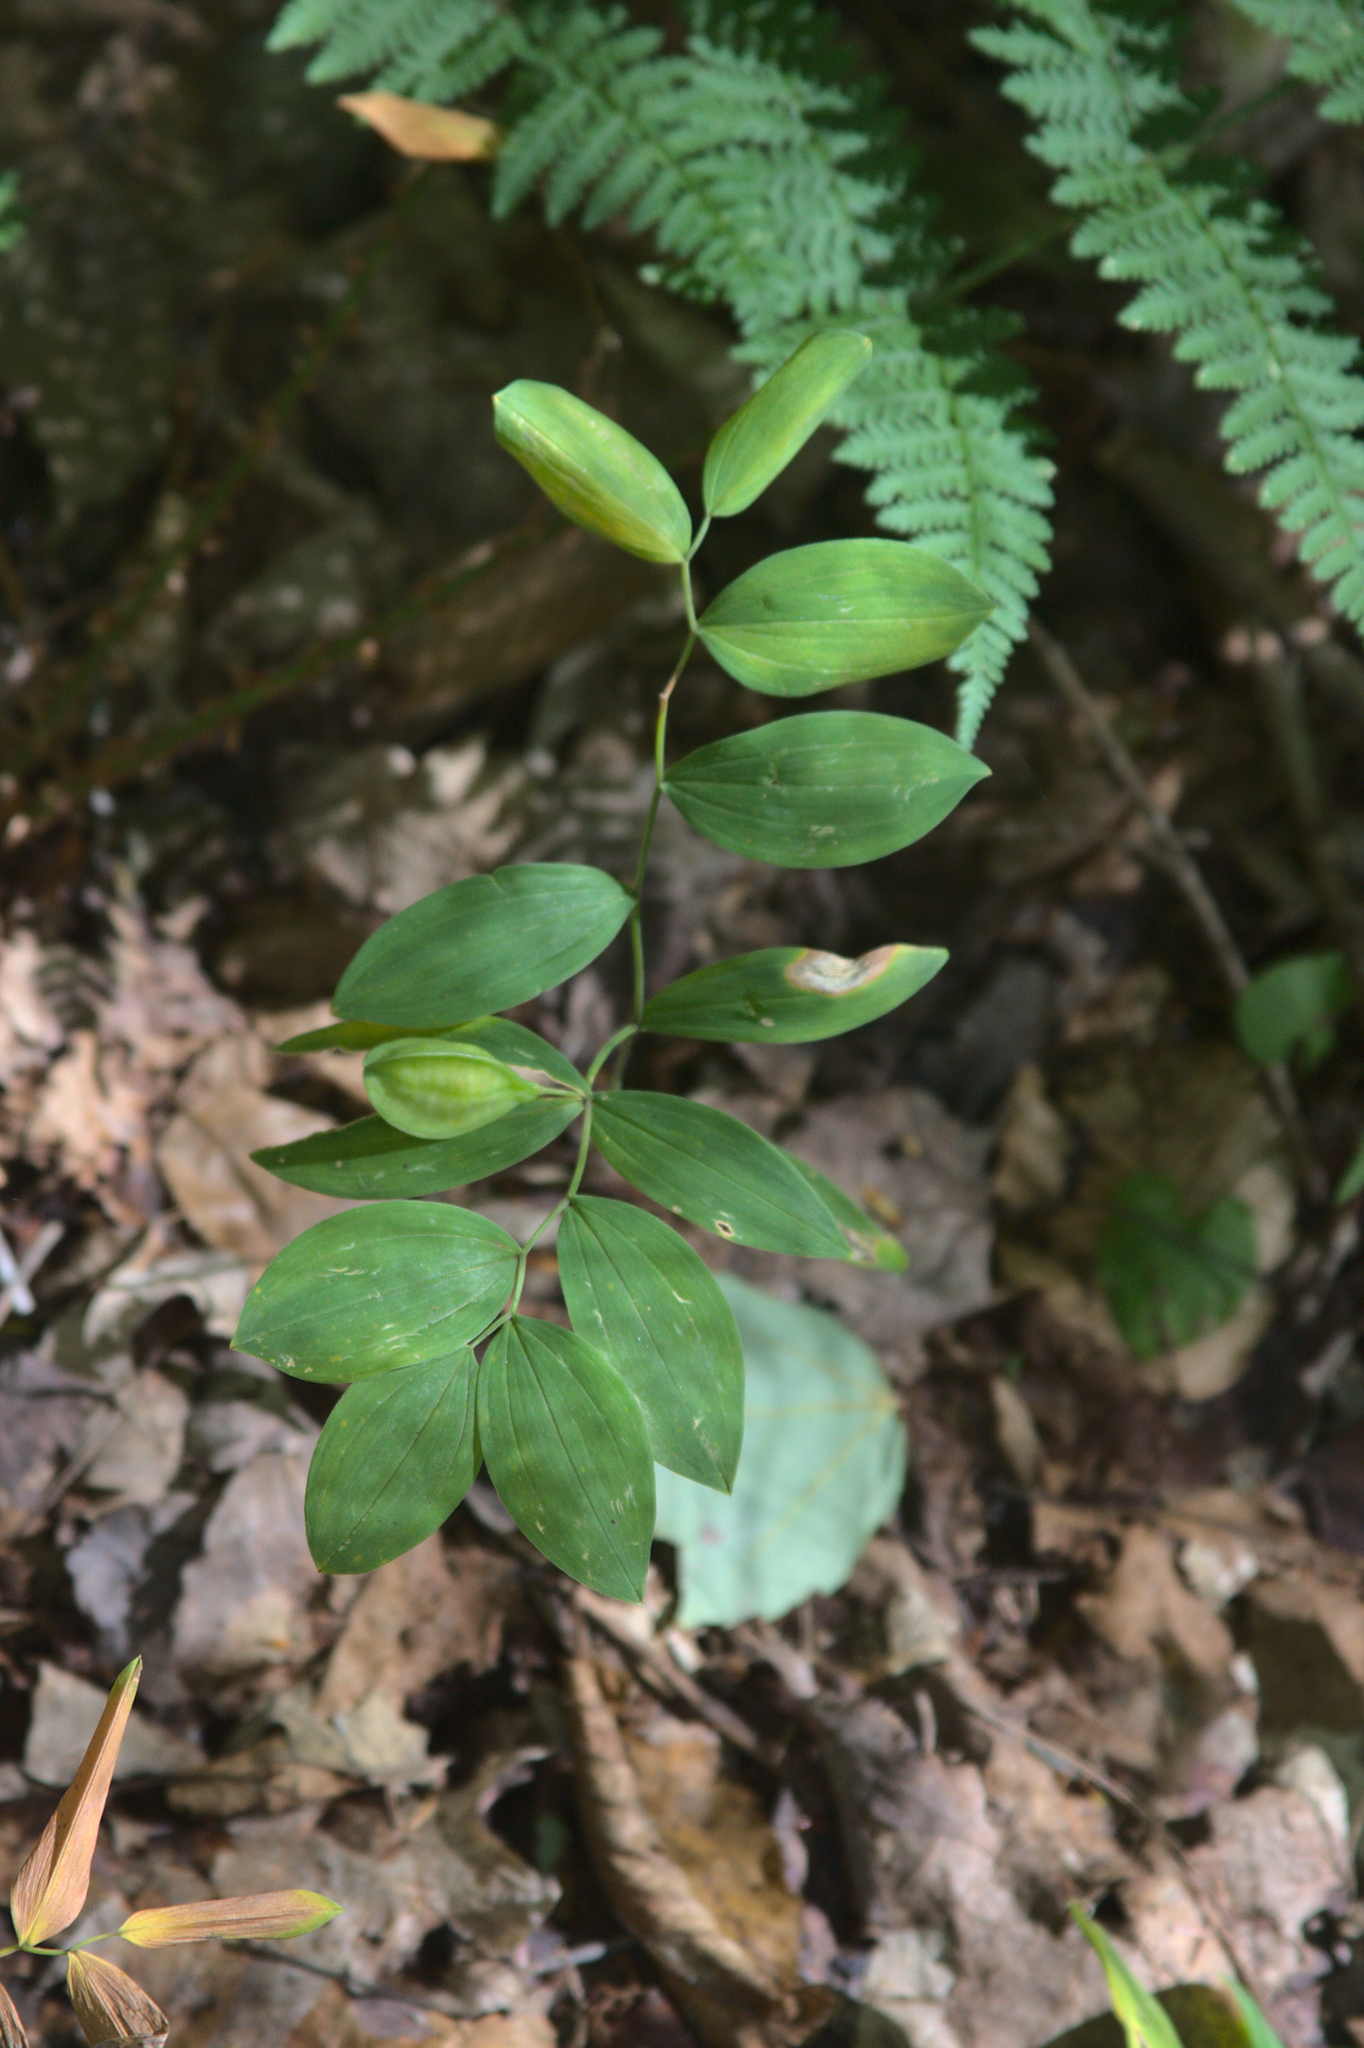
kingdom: Plantae
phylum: Tracheophyta
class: Liliopsida
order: Liliales
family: Colchicaceae
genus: Uvularia
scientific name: Uvularia sessilifolia
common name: Straw-lily
